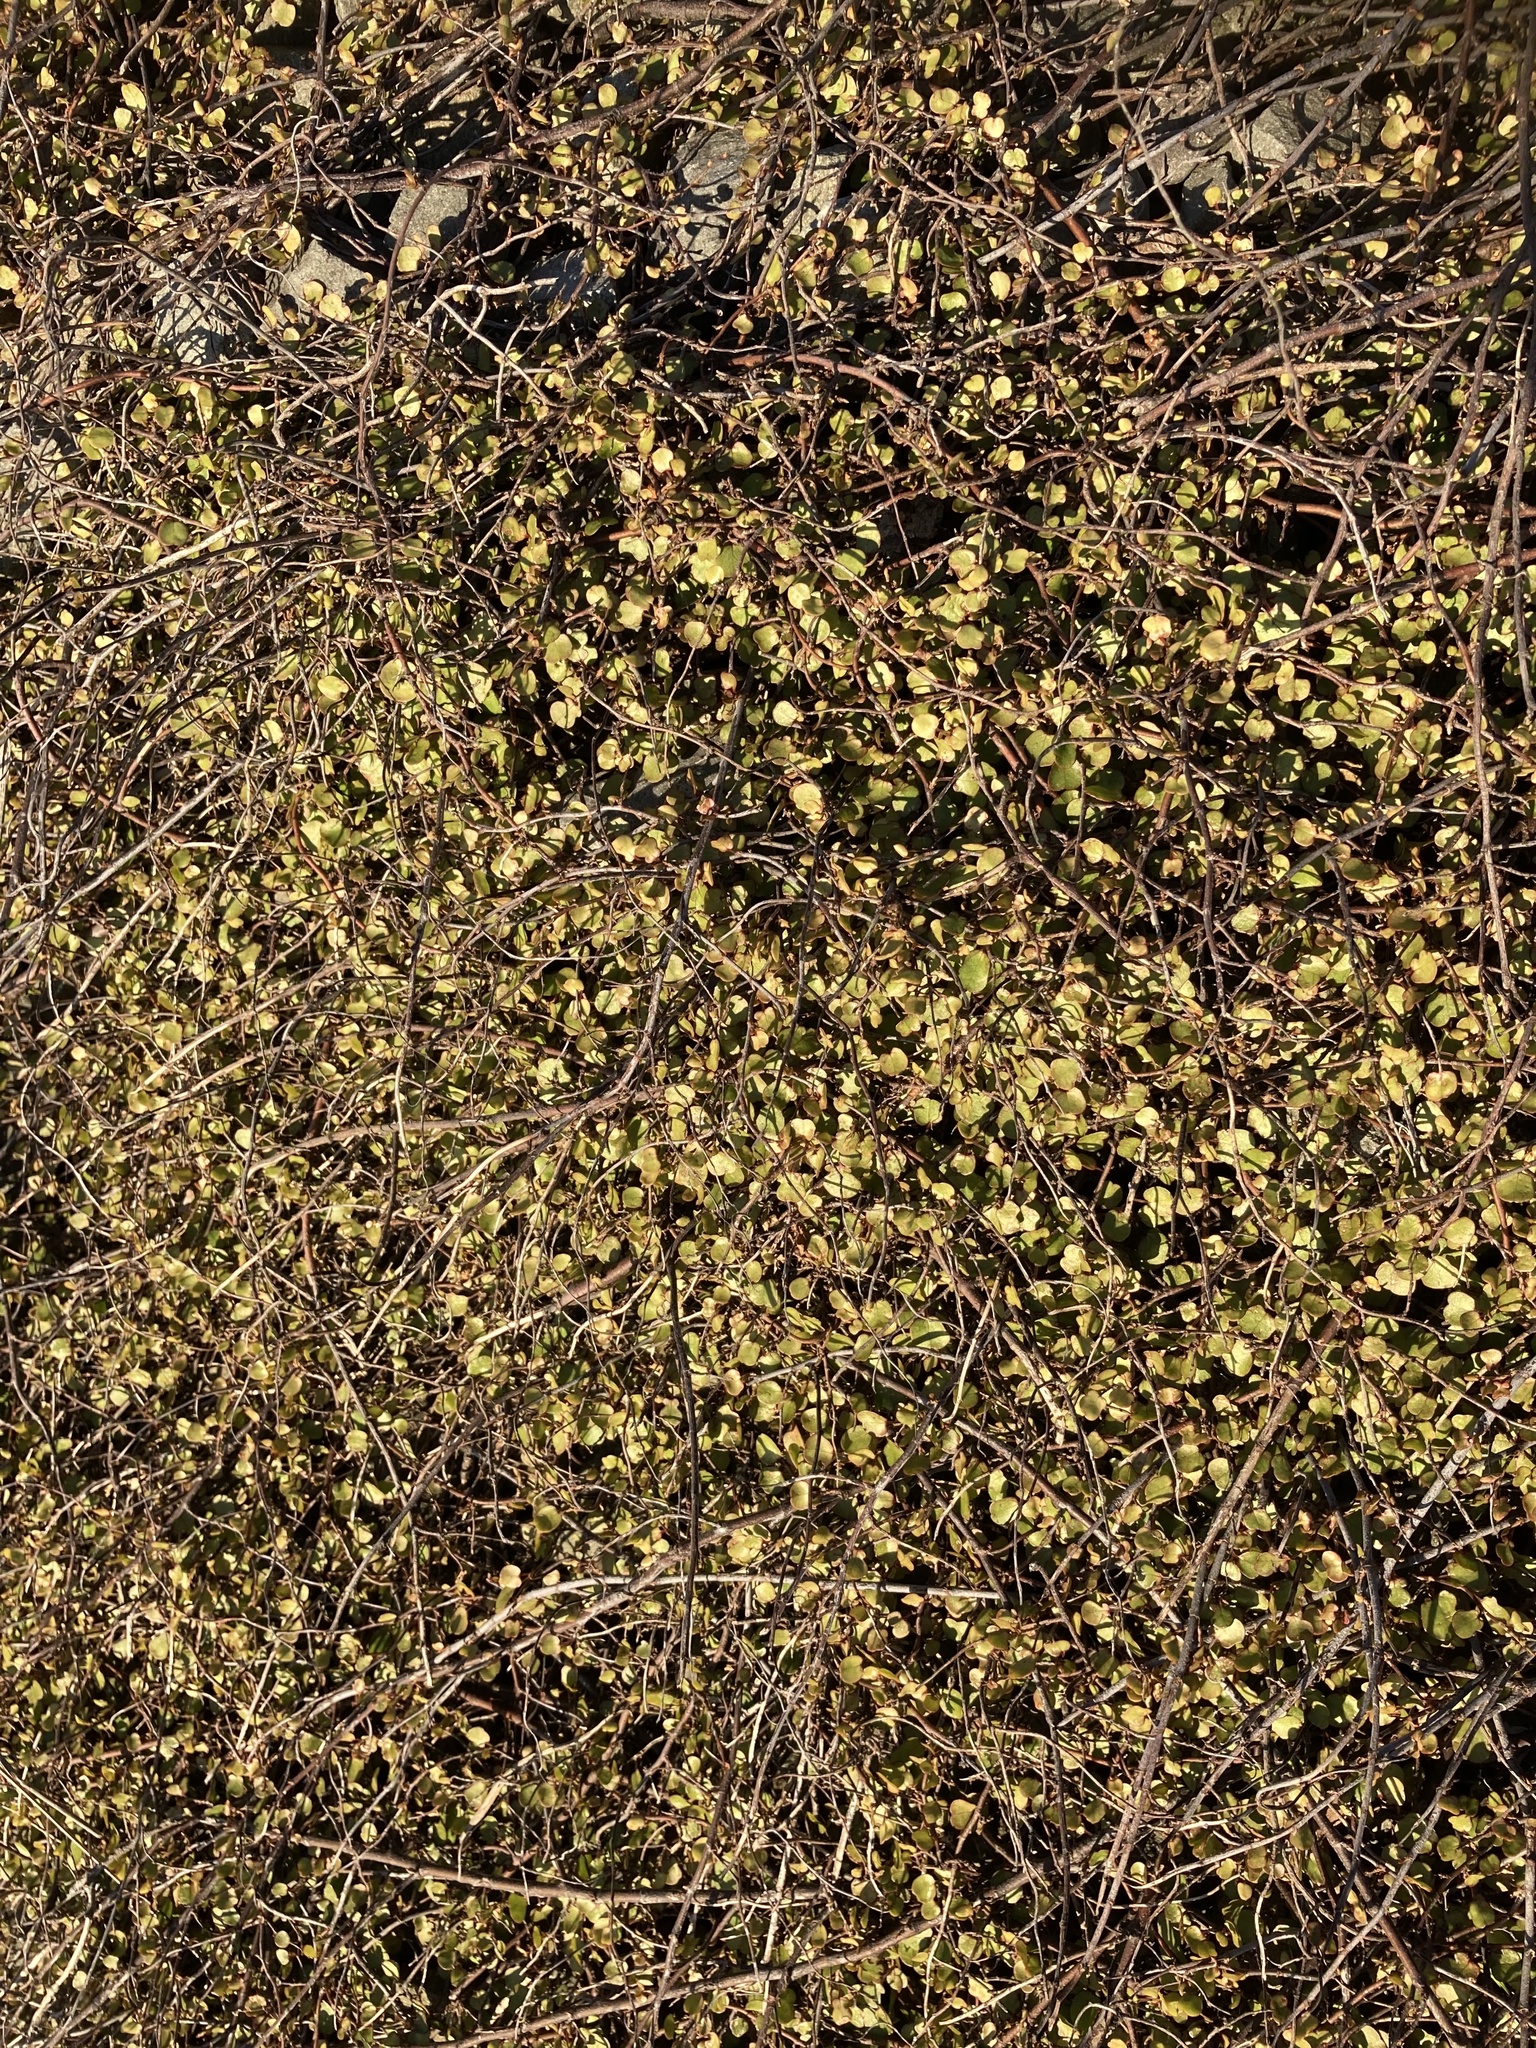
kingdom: Plantae
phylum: Tracheophyta
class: Magnoliopsida
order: Caryophyllales
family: Polygonaceae
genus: Muehlenbeckia
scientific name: Muehlenbeckia complexa
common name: Wireplant
